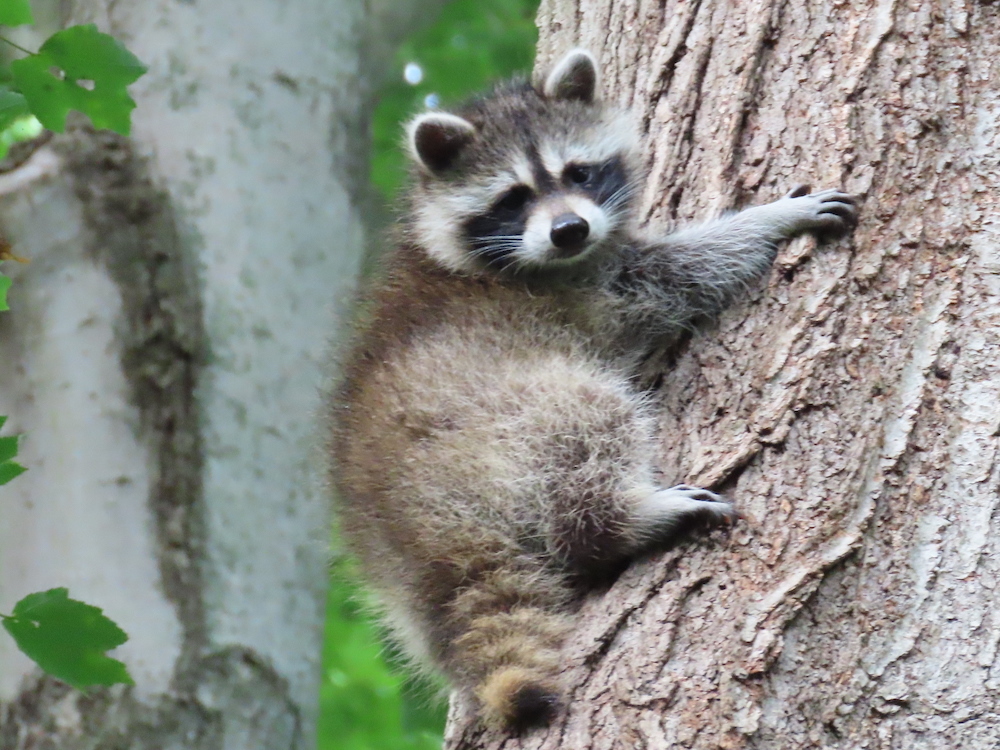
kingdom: Animalia
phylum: Chordata
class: Mammalia
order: Carnivora
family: Procyonidae
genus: Procyon
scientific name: Procyon lotor
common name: Raccoon
